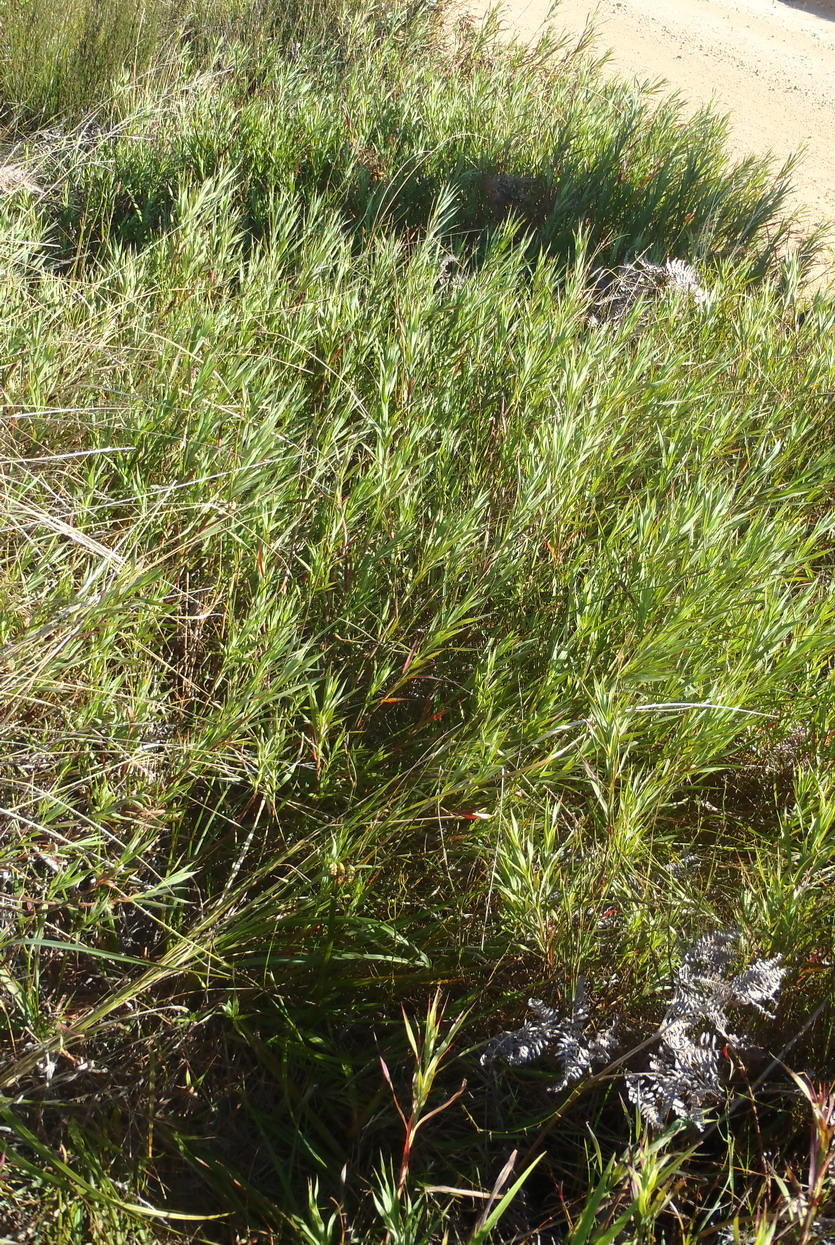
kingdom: Plantae
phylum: Tracheophyta
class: Magnoliopsida
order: Rosales
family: Rosaceae
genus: Cliffortia
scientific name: Cliffortia graminea
